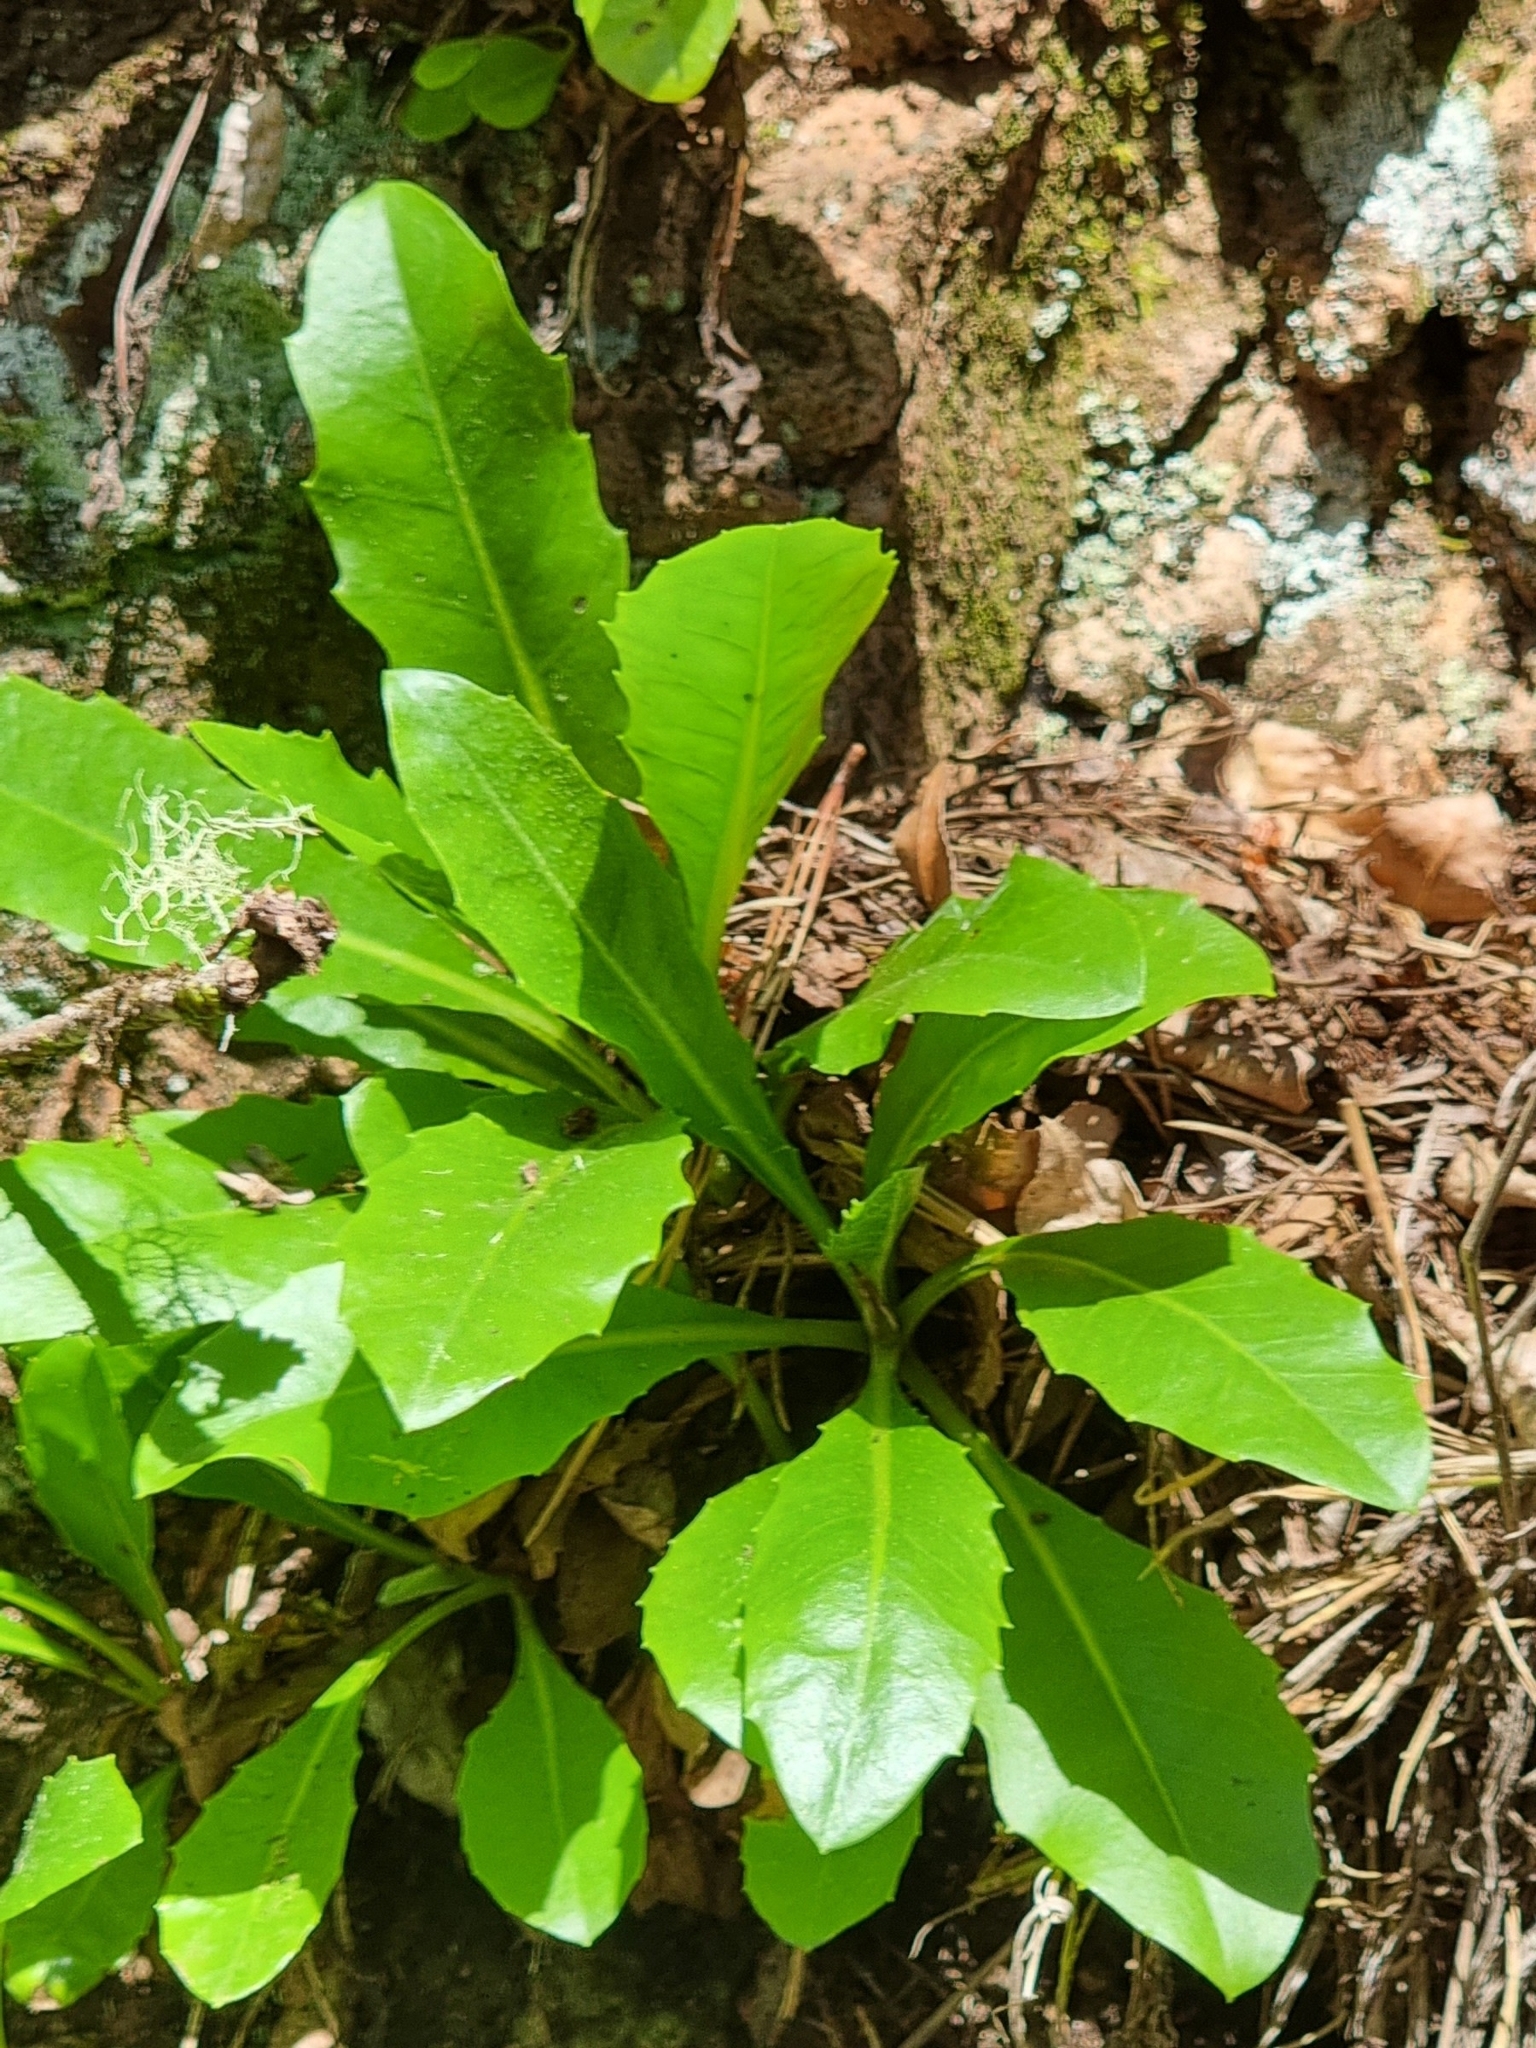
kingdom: Plantae
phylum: Tracheophyta
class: Magnoliopsida
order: Asterales
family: Asteraceae
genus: Tolpis
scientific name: Tolpis macrorhiza
